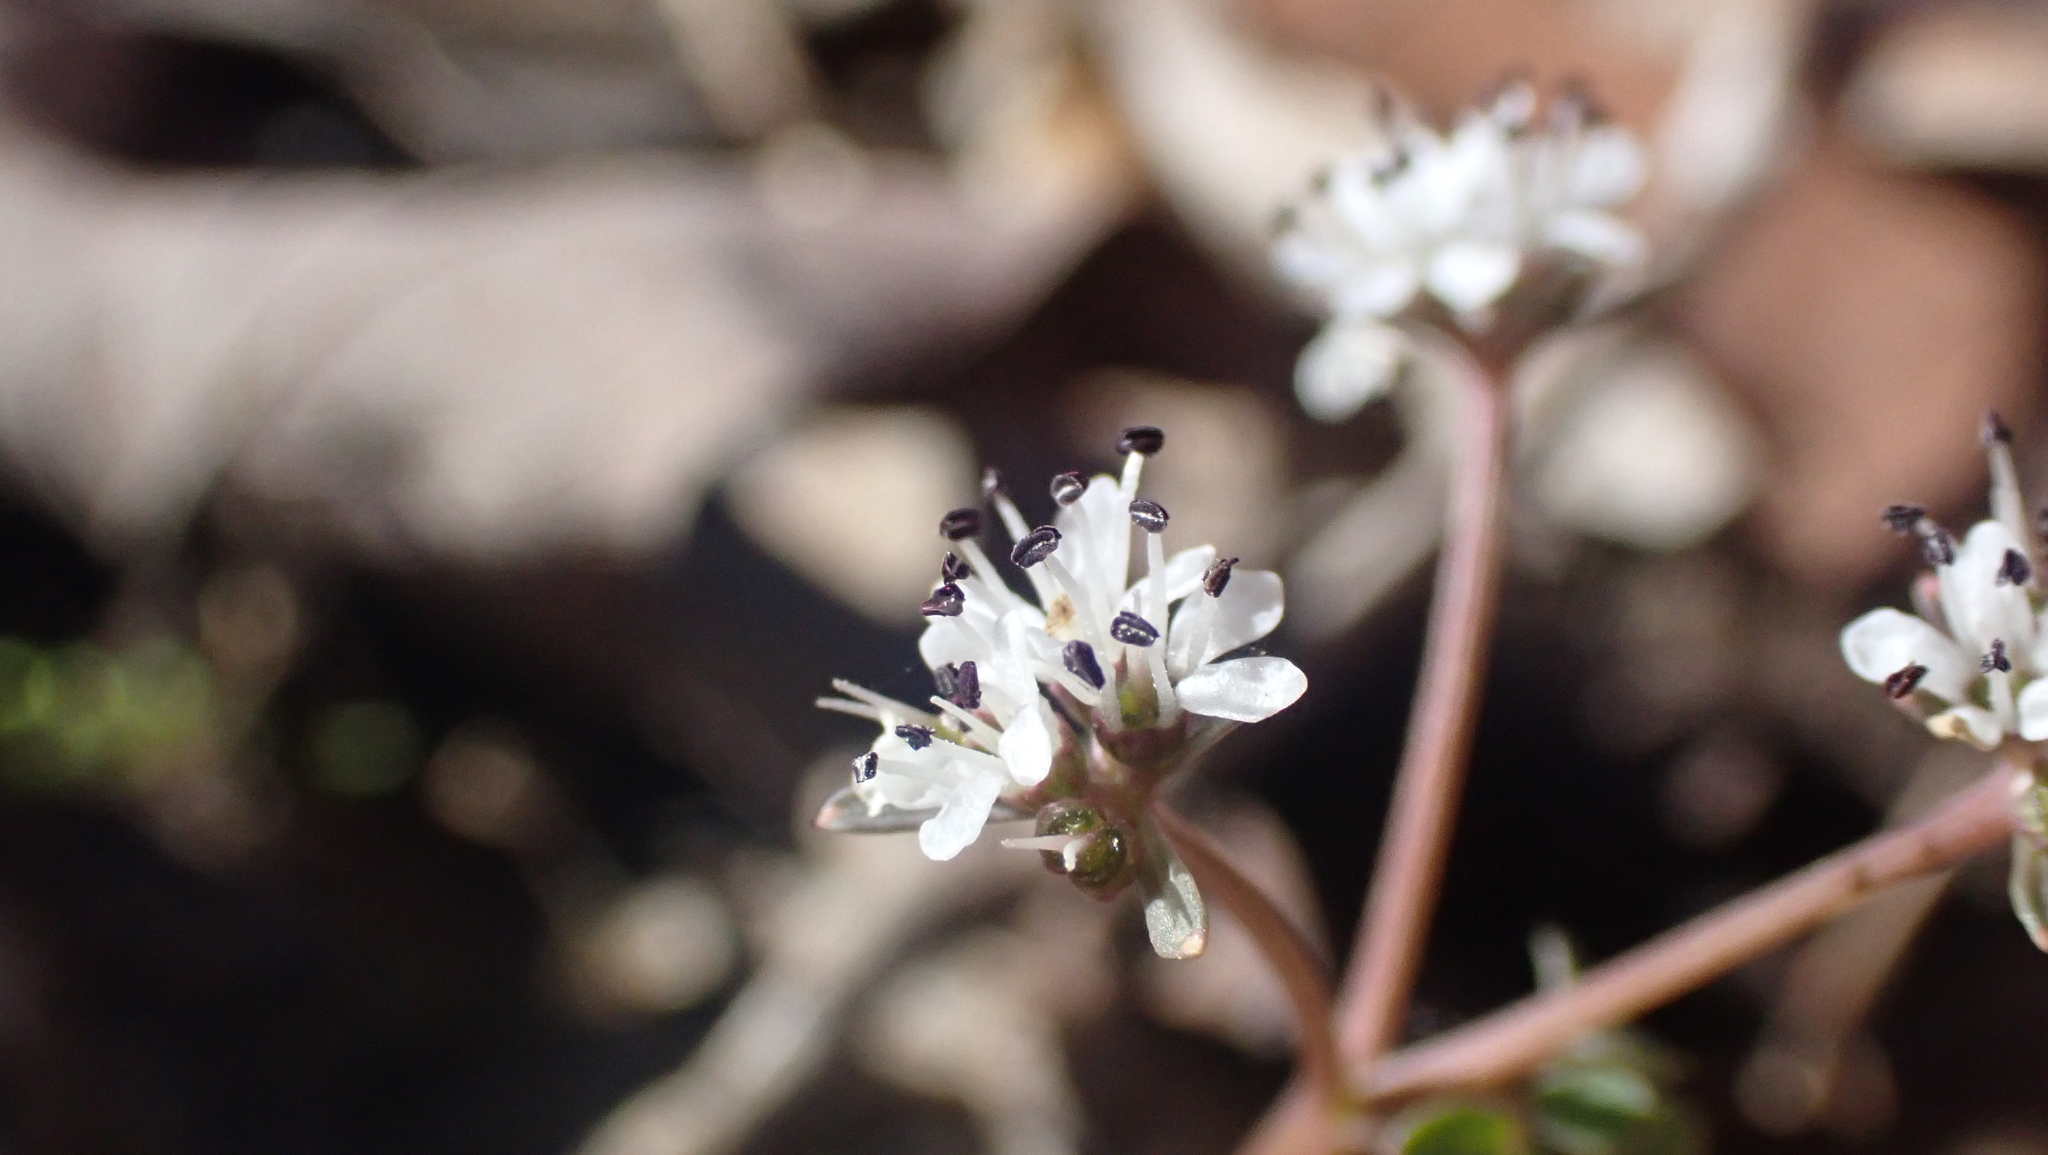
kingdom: Plantae
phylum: Tracheophyta
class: Magnoliopsida
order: Apiales
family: Apiaceae
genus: Erigenia
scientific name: Erigenia bulbosa
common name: Pepper-and-salt
